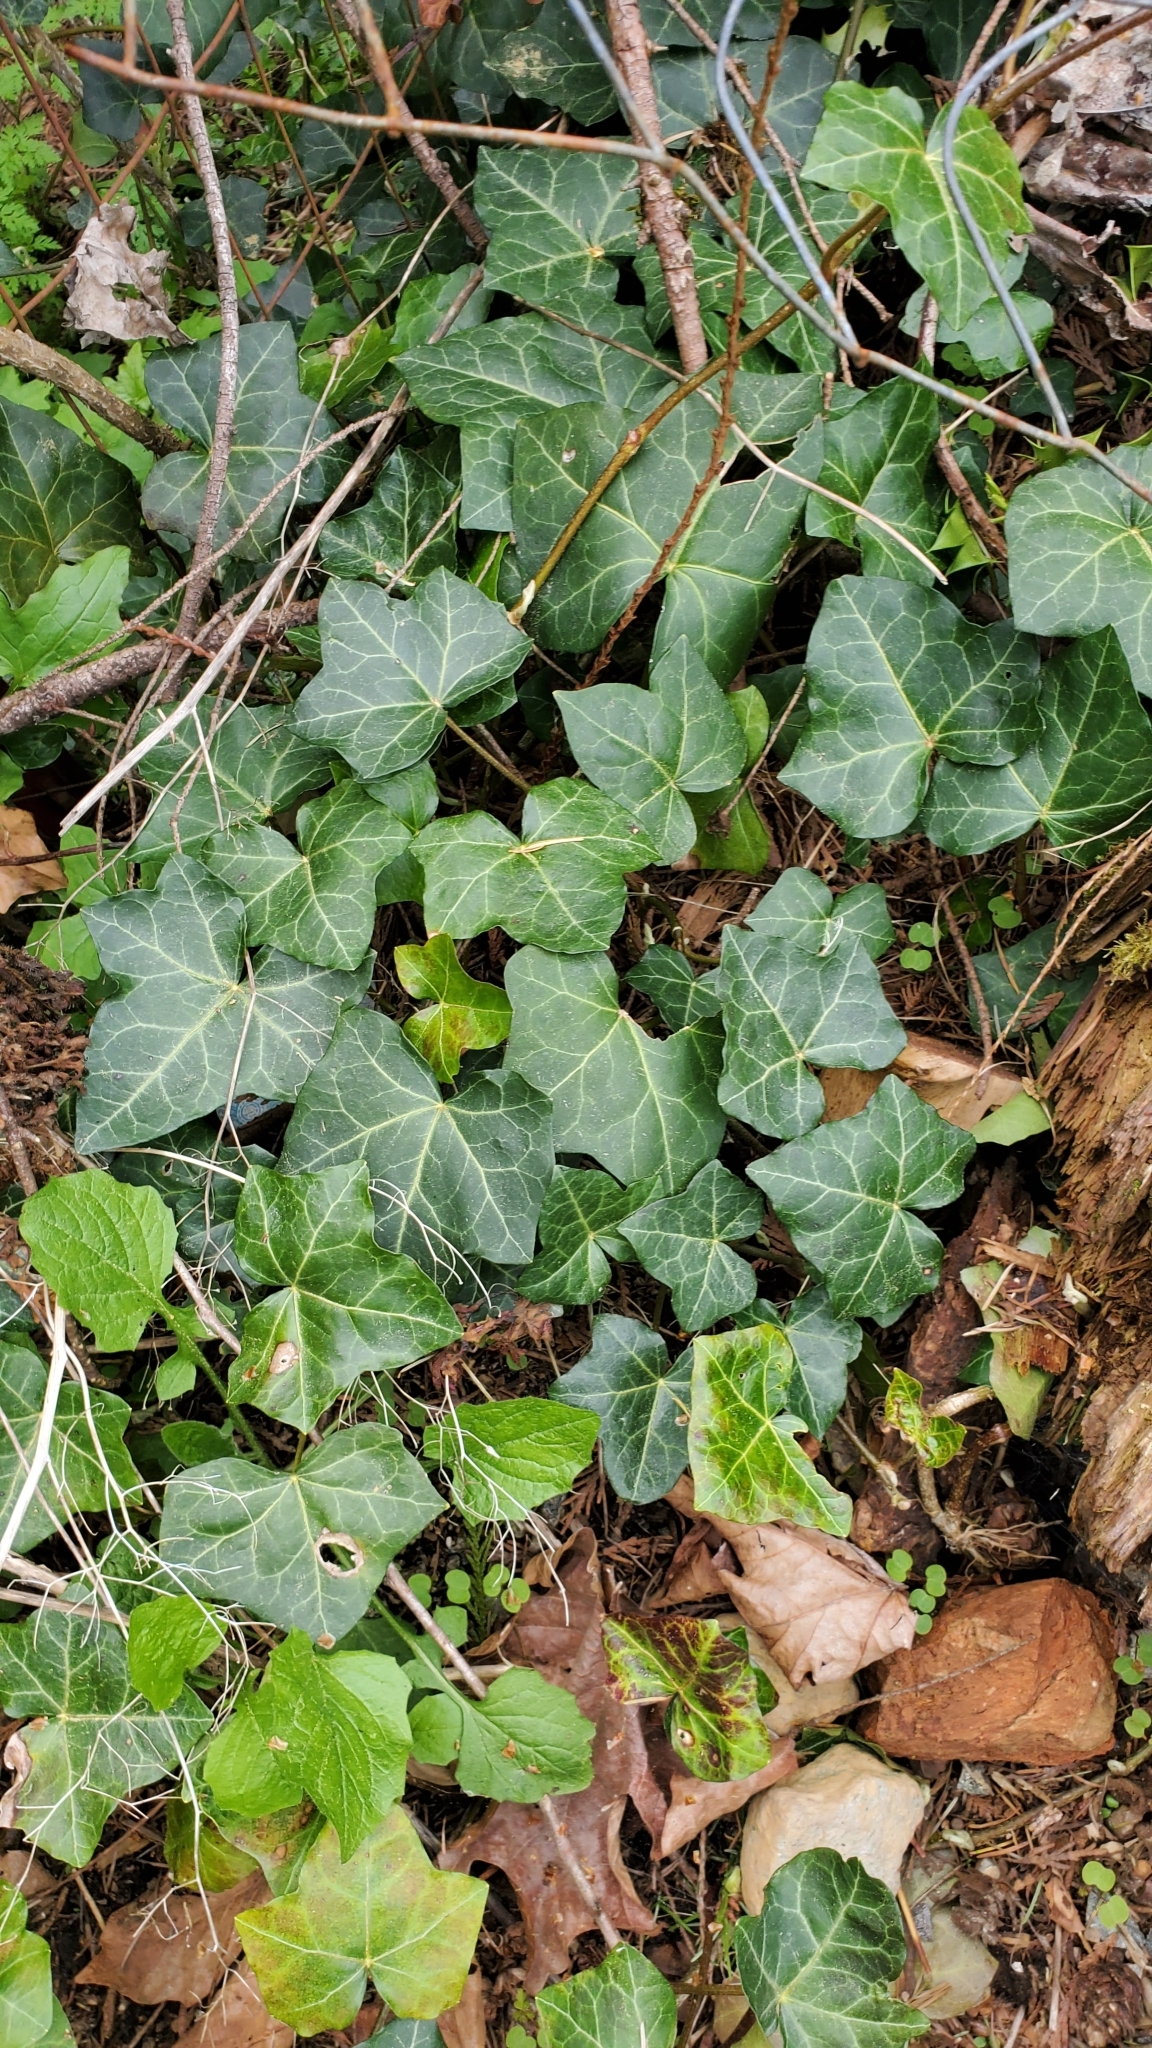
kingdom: Plantae
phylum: Tracheophyta
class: Magnoliopsida
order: Apiales
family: Araliaceae
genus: Hedera
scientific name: Hedera helix
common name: Ivy
